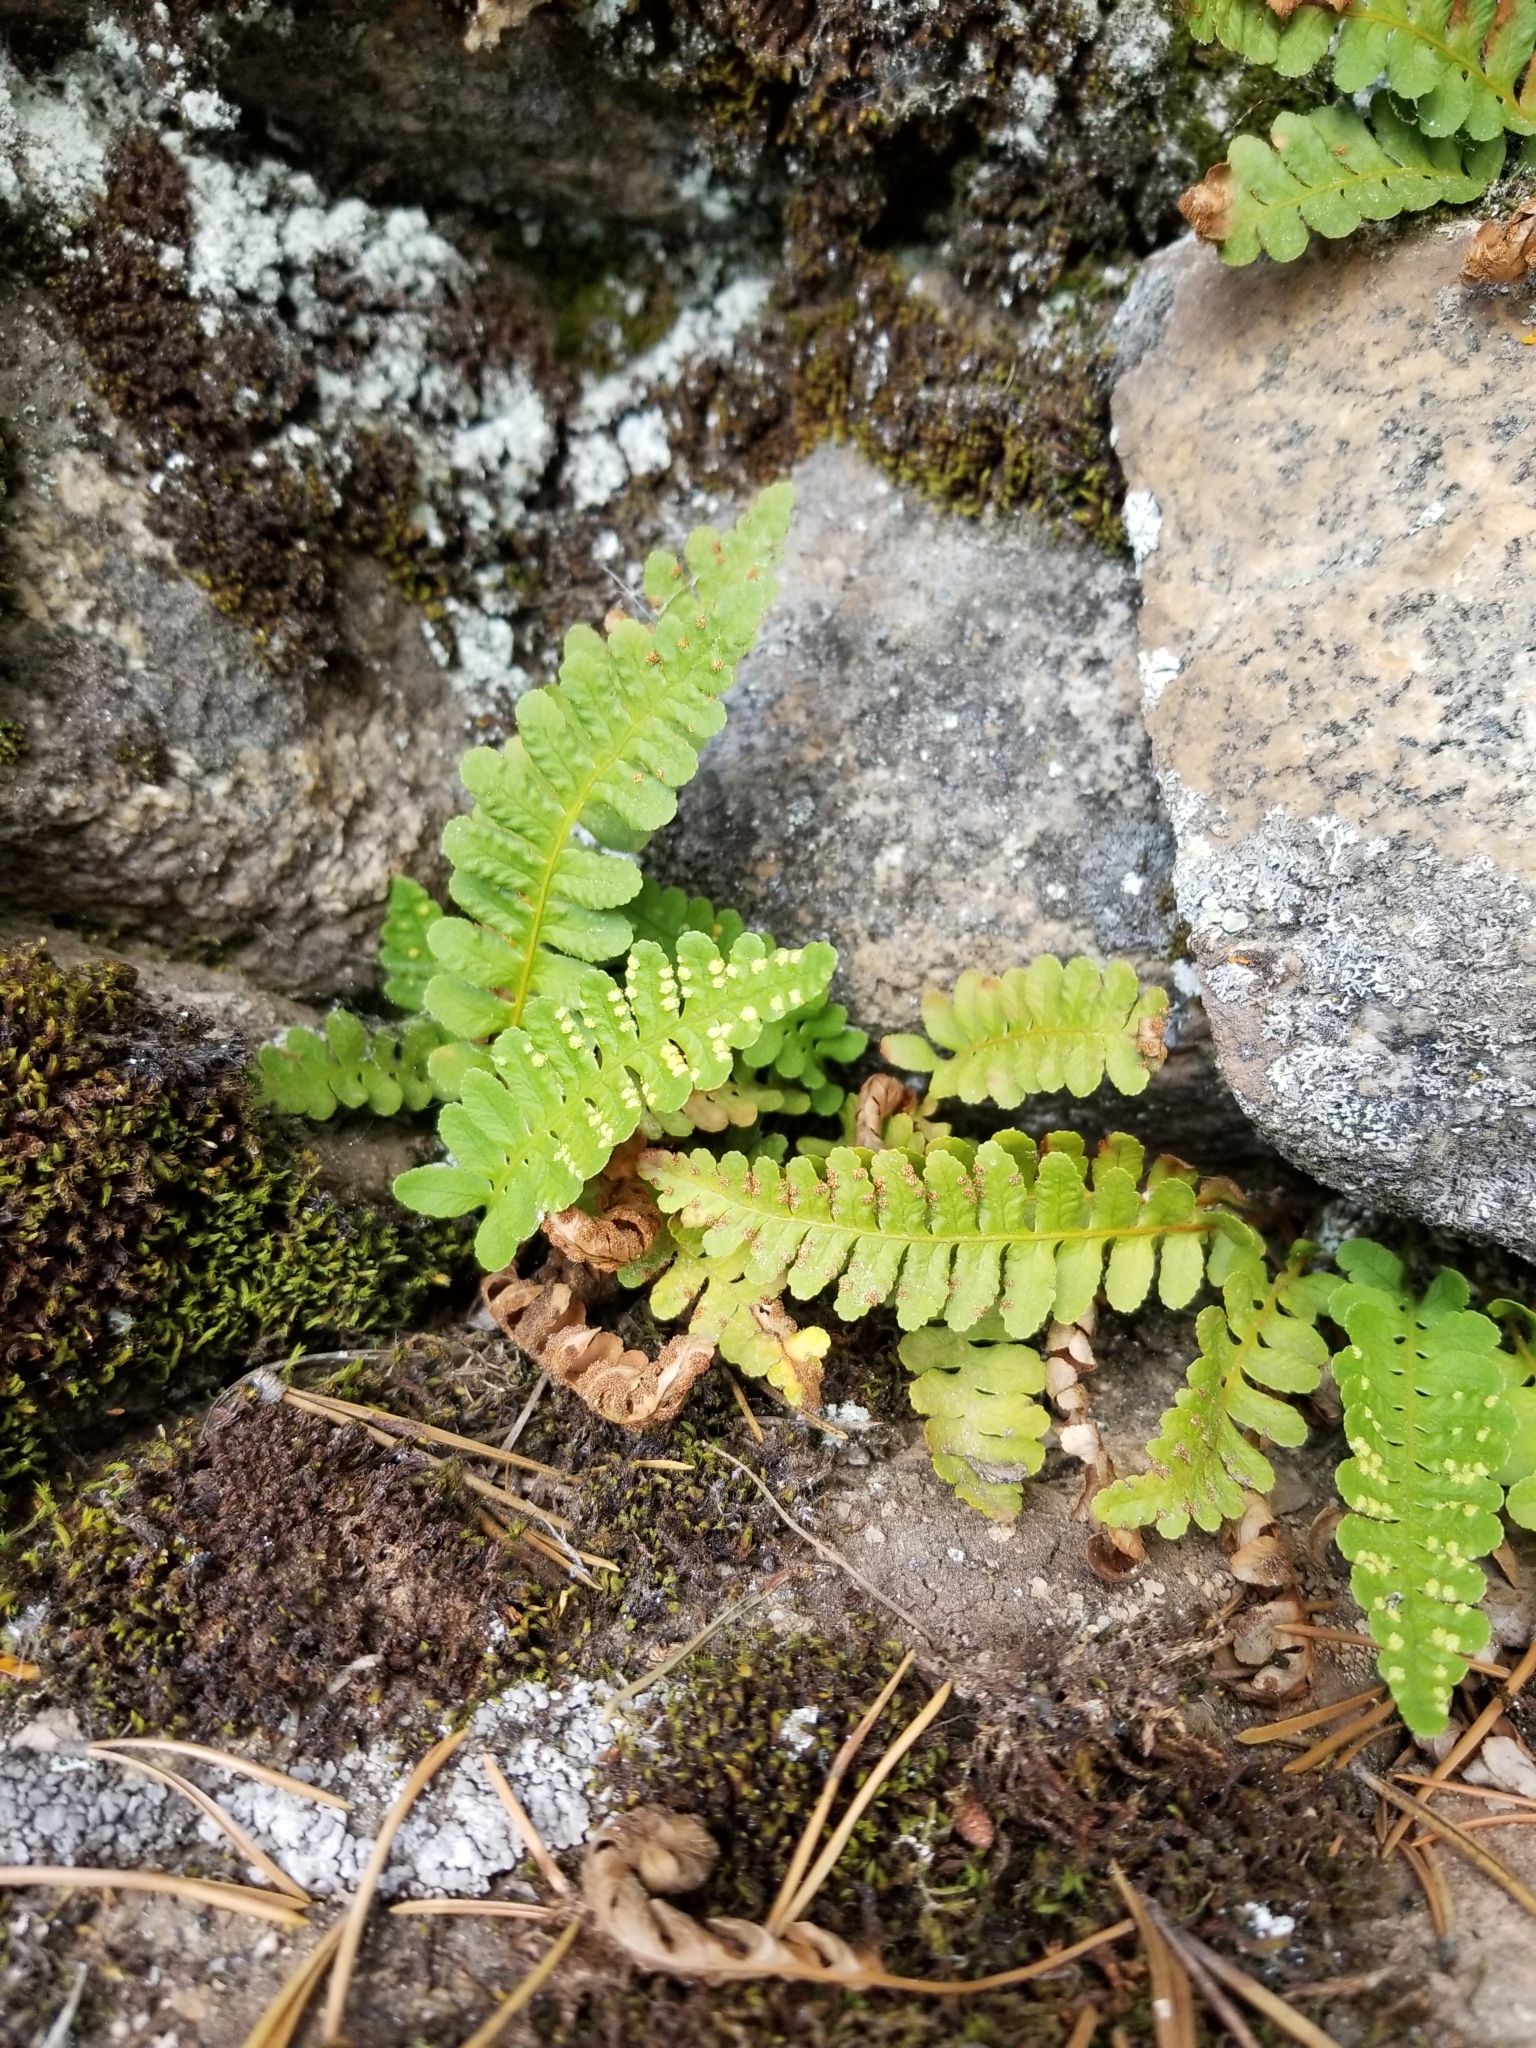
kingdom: Plantae
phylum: Tracheophyta
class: Polypodiopsida
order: Polypodiales
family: Polypodiaceae
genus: Polypodium
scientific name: Polypodium saximontanum
